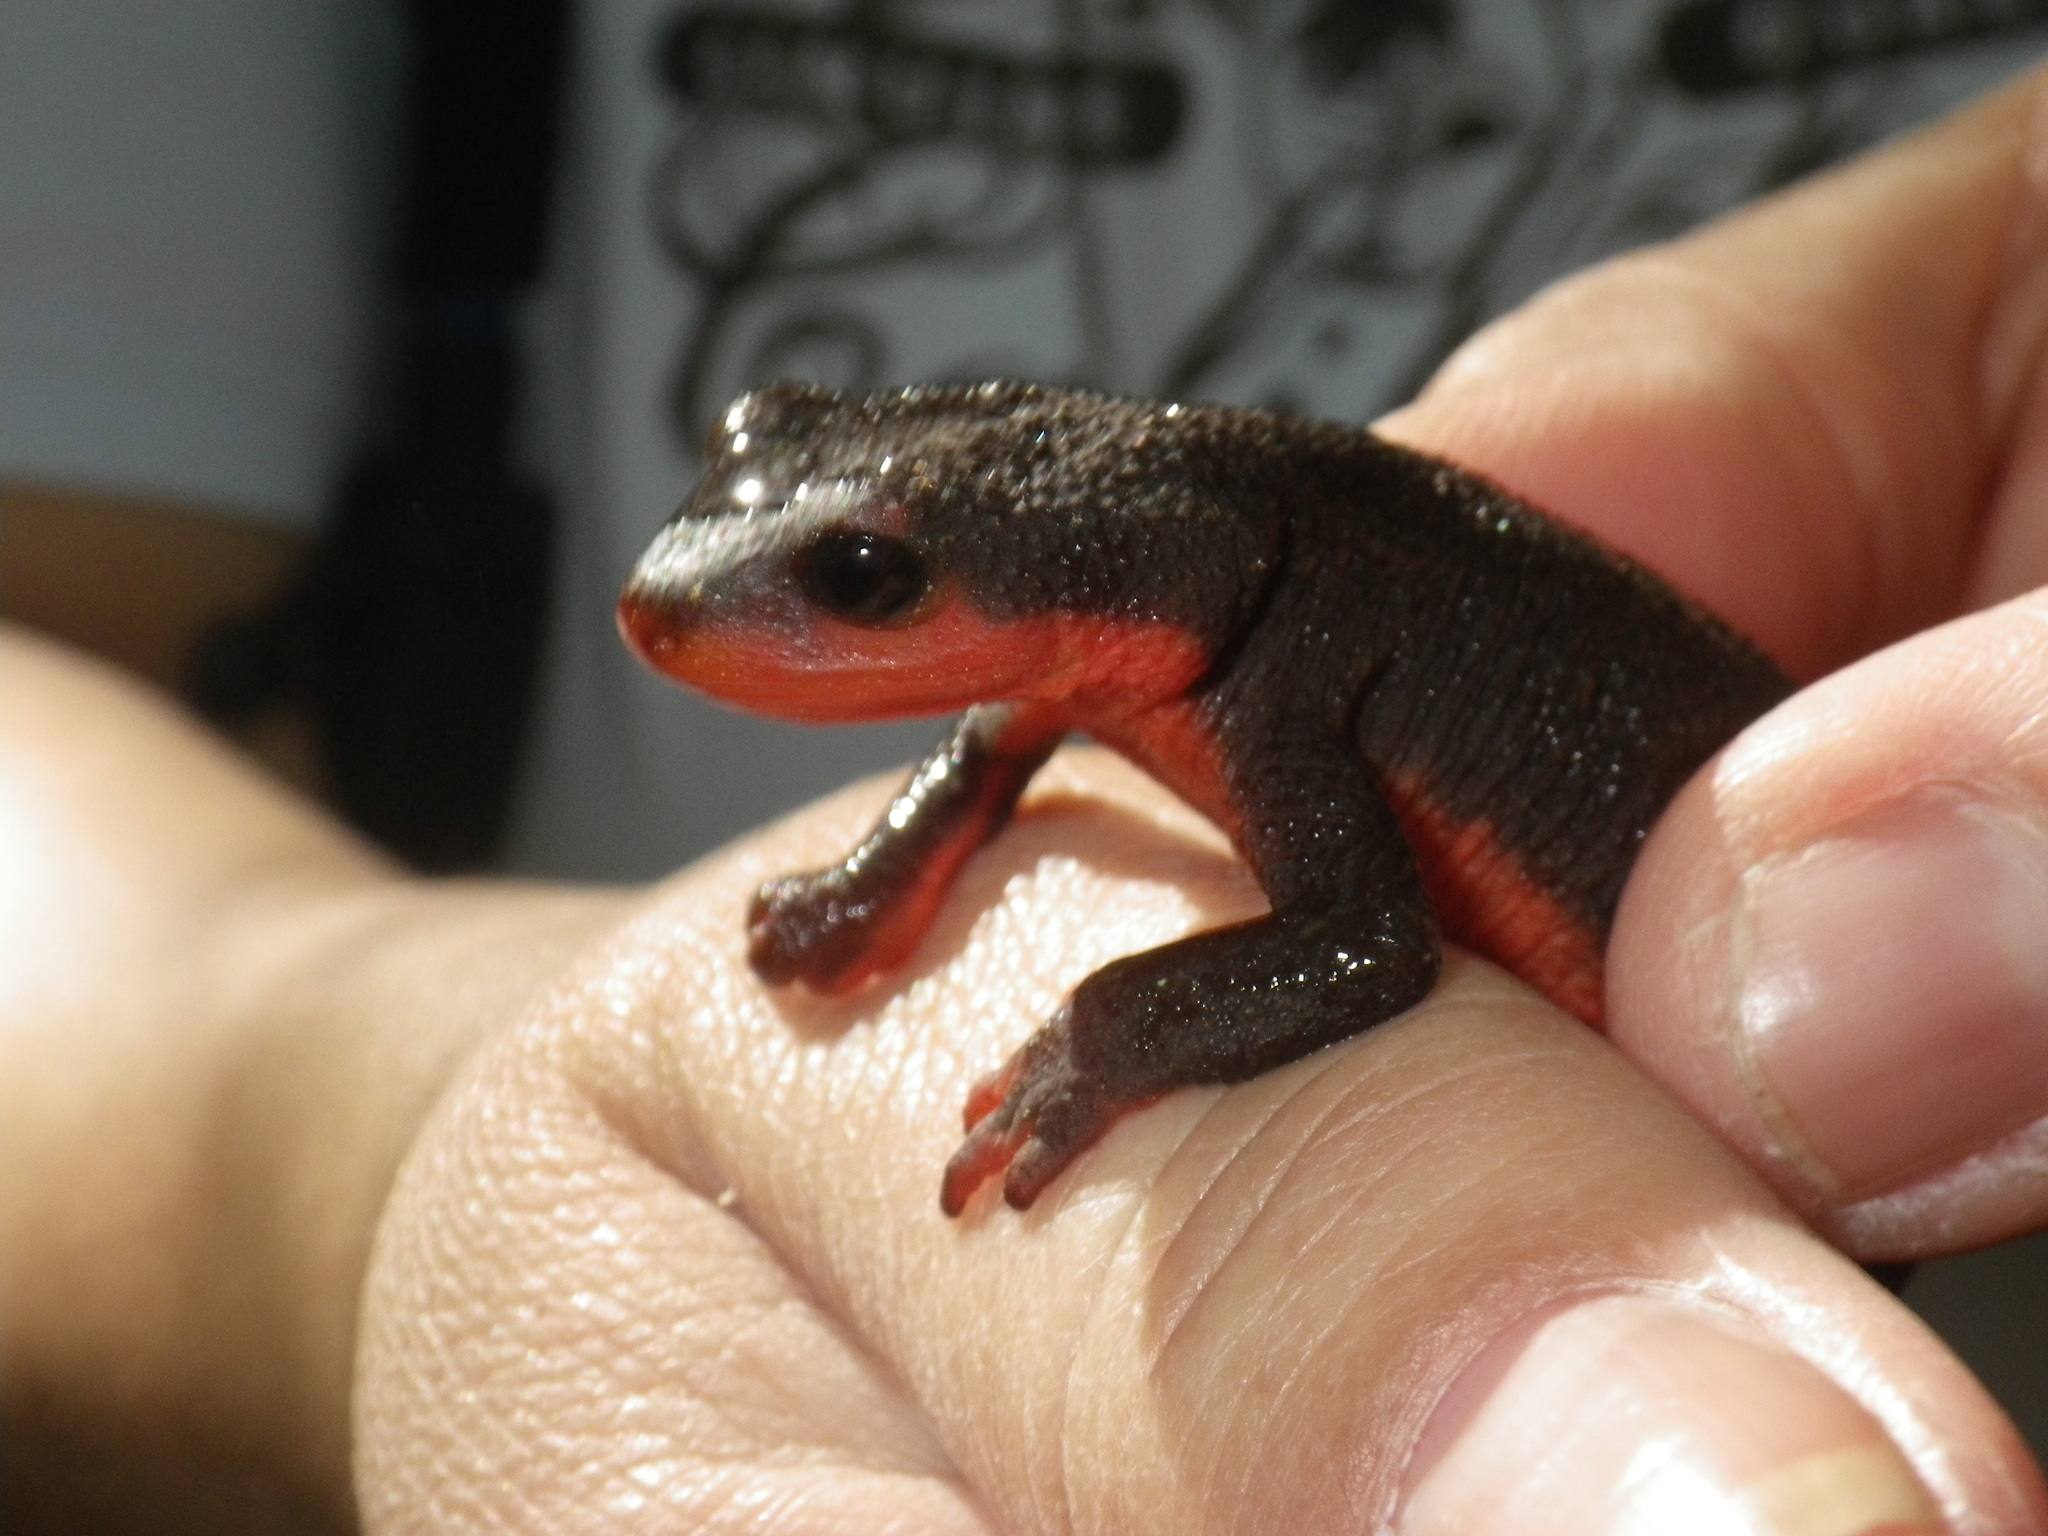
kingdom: Animalia
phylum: Chordata
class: Amphibia
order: Caudata
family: Salamandridae
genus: Taricha
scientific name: Taricha rivularis
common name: Red-bellied newt
